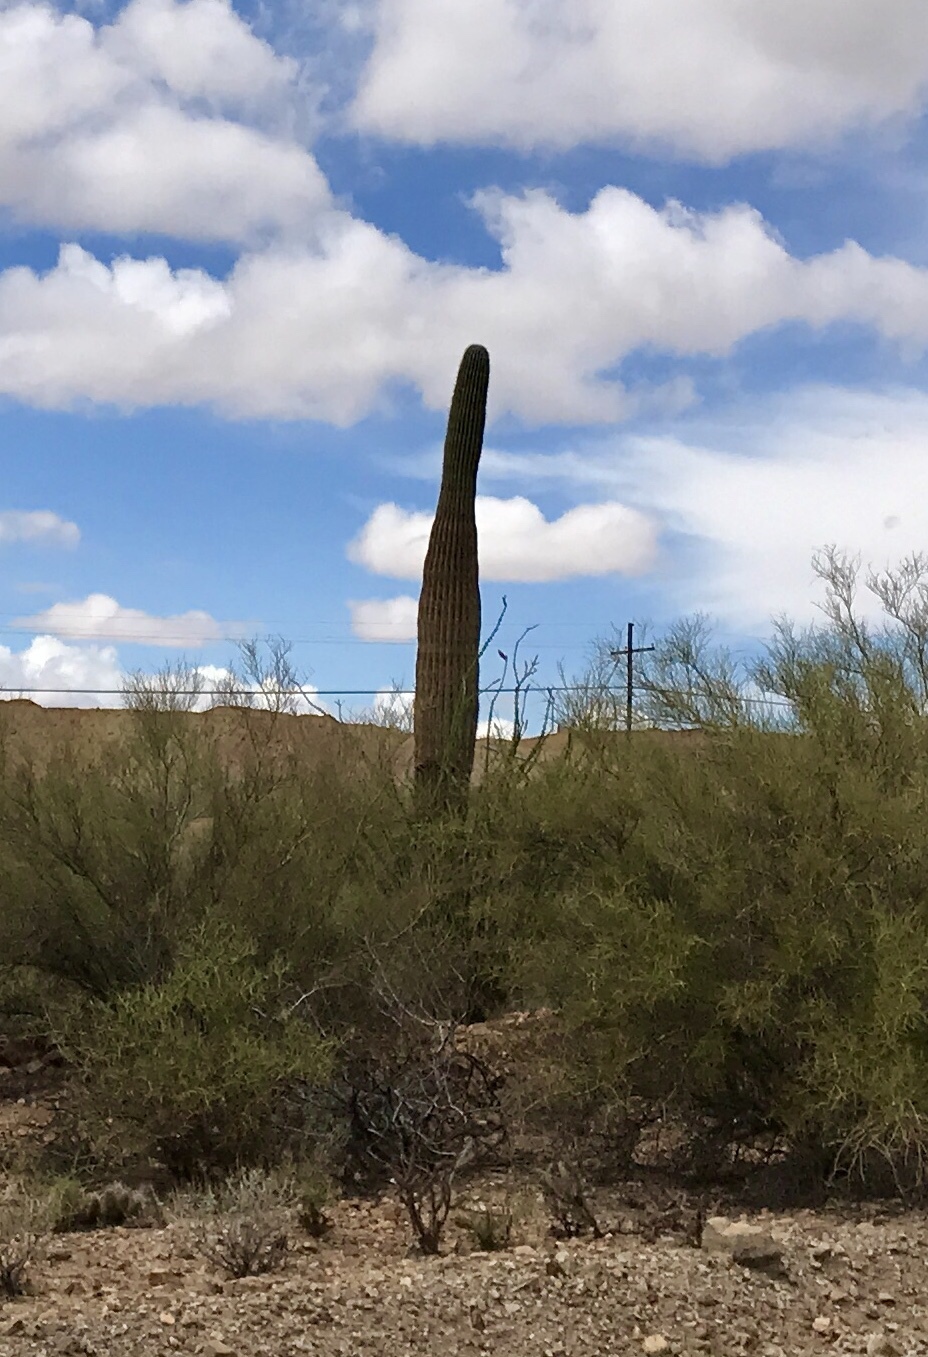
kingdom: Plantae
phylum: Tracheophyta
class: Magnoliopsida
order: Caryophyllales
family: Cactaceae
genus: Carnegiea
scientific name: Carnegiea gigantea
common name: Saguaro
